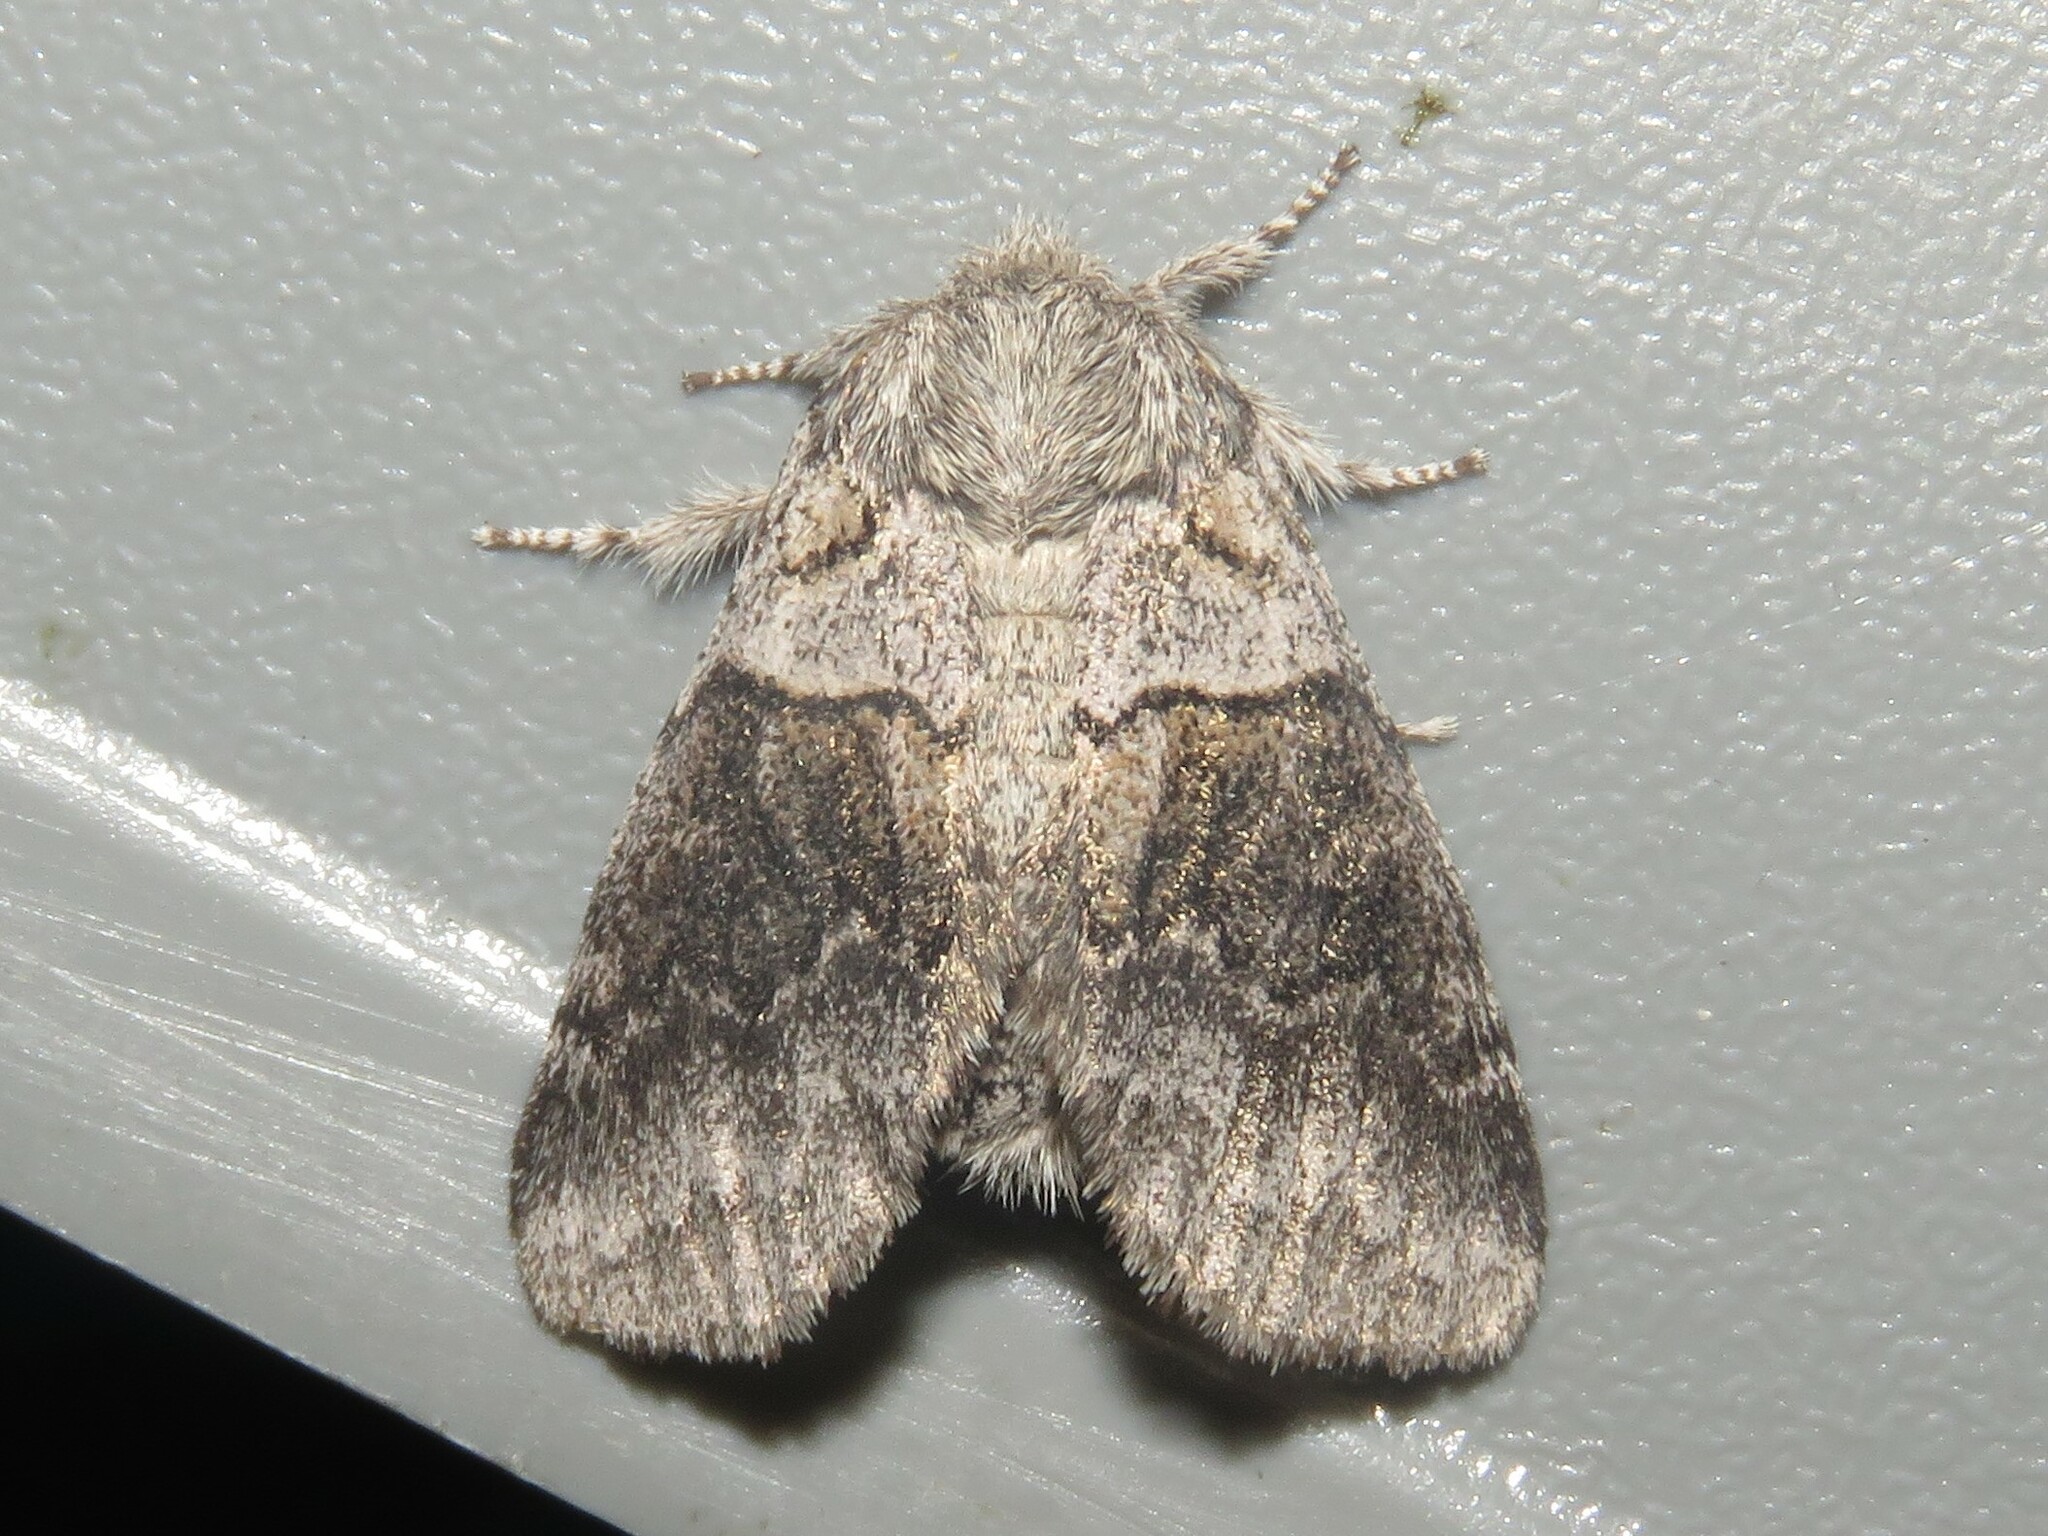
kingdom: Animalia
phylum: Arthropoda
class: Insecta
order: Lepidoptera
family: Notodontidae
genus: Gluphisia
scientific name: Gluphisia septentrionis
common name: Common gluphisia
